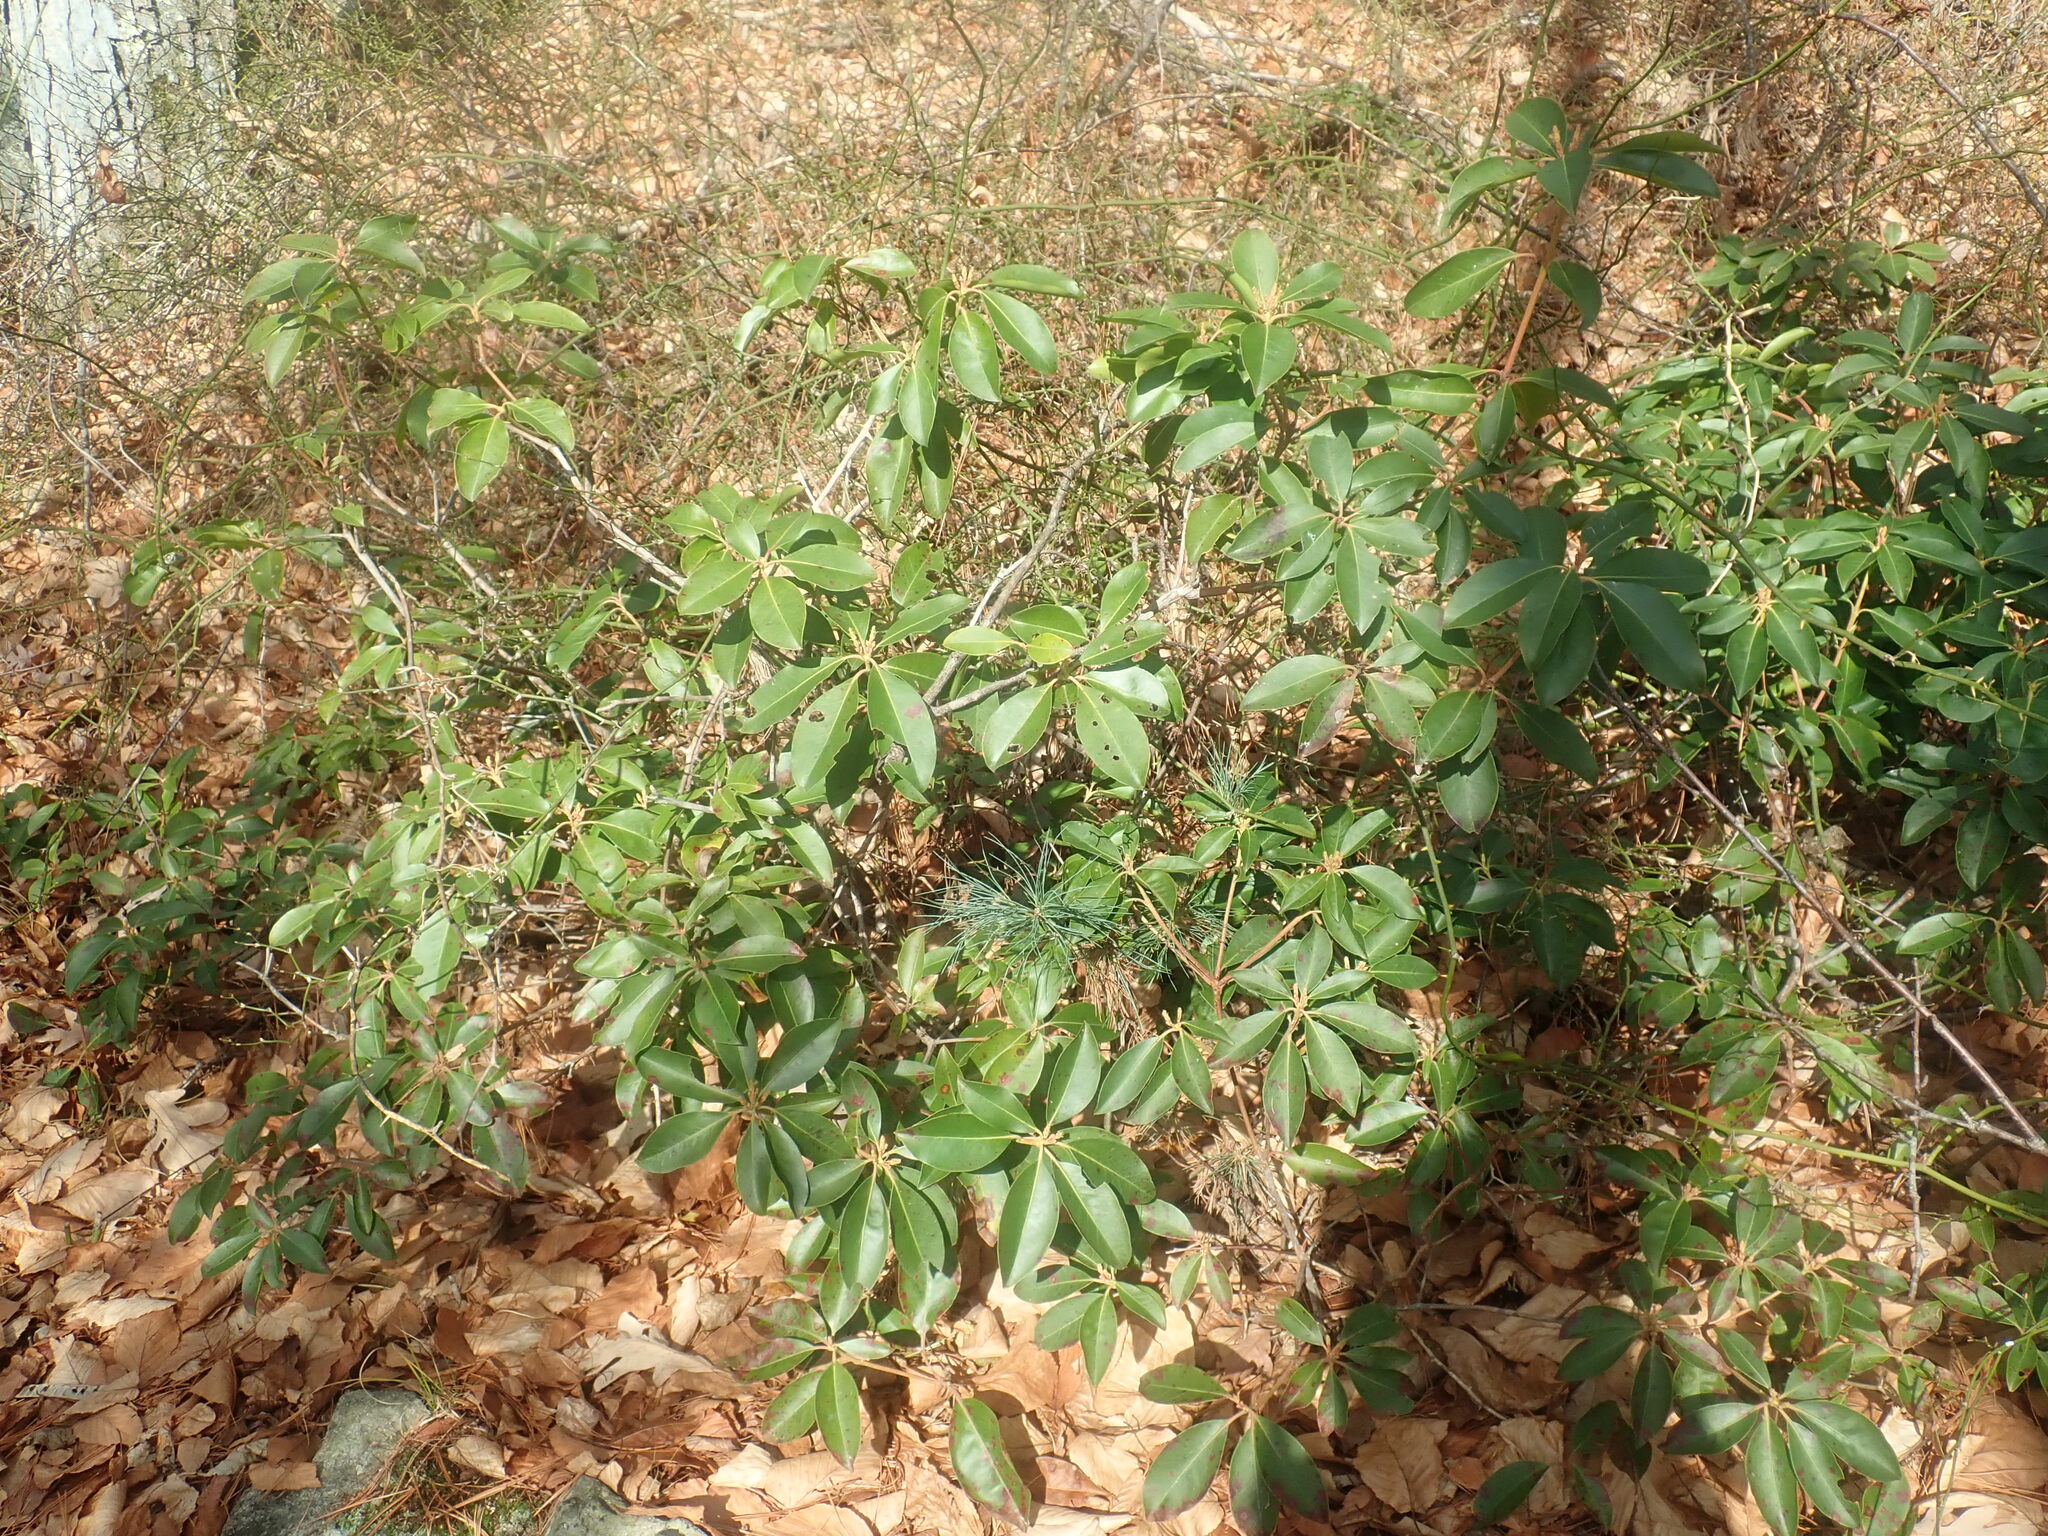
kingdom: Plantae
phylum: Tracheophyta
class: Magnoliopsida
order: Ericales
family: Ericaceae
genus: Kalmia
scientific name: Kalmia latifolia
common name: Mountain-laurel
